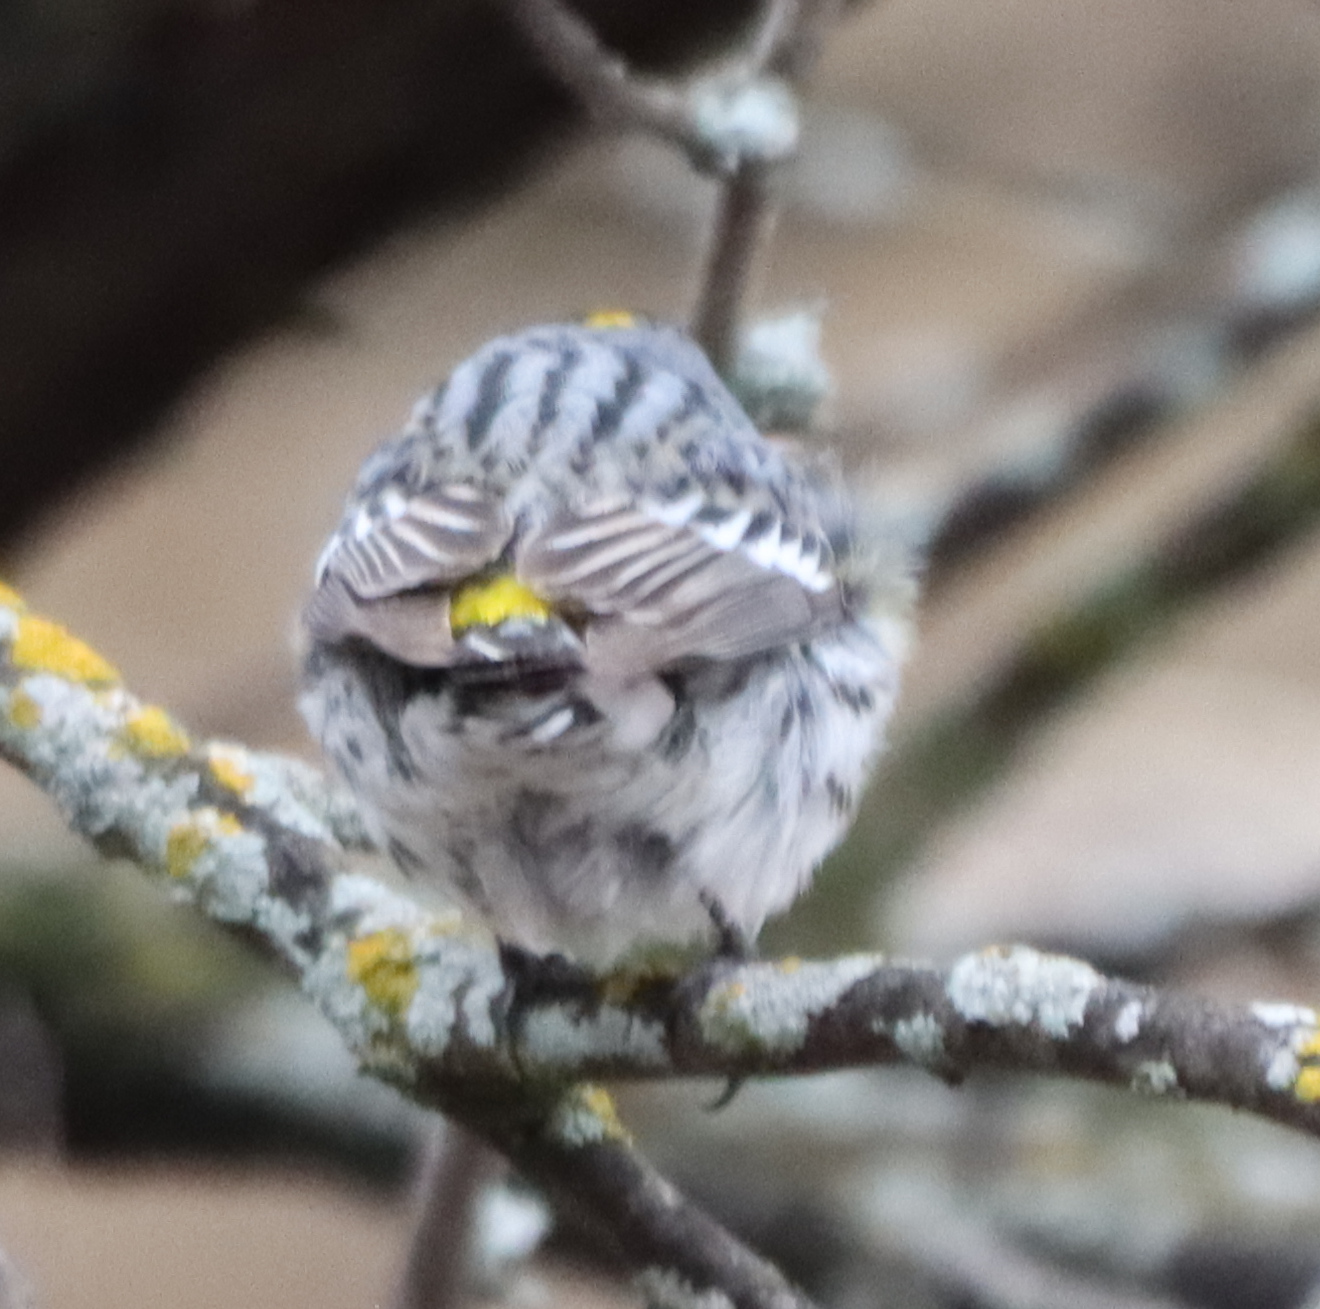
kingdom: Animalia
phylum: Chordata
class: Aves
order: Passeriformes
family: Parulidae
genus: Setophaga
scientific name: Setophaga coronata
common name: Myrtle warbler
